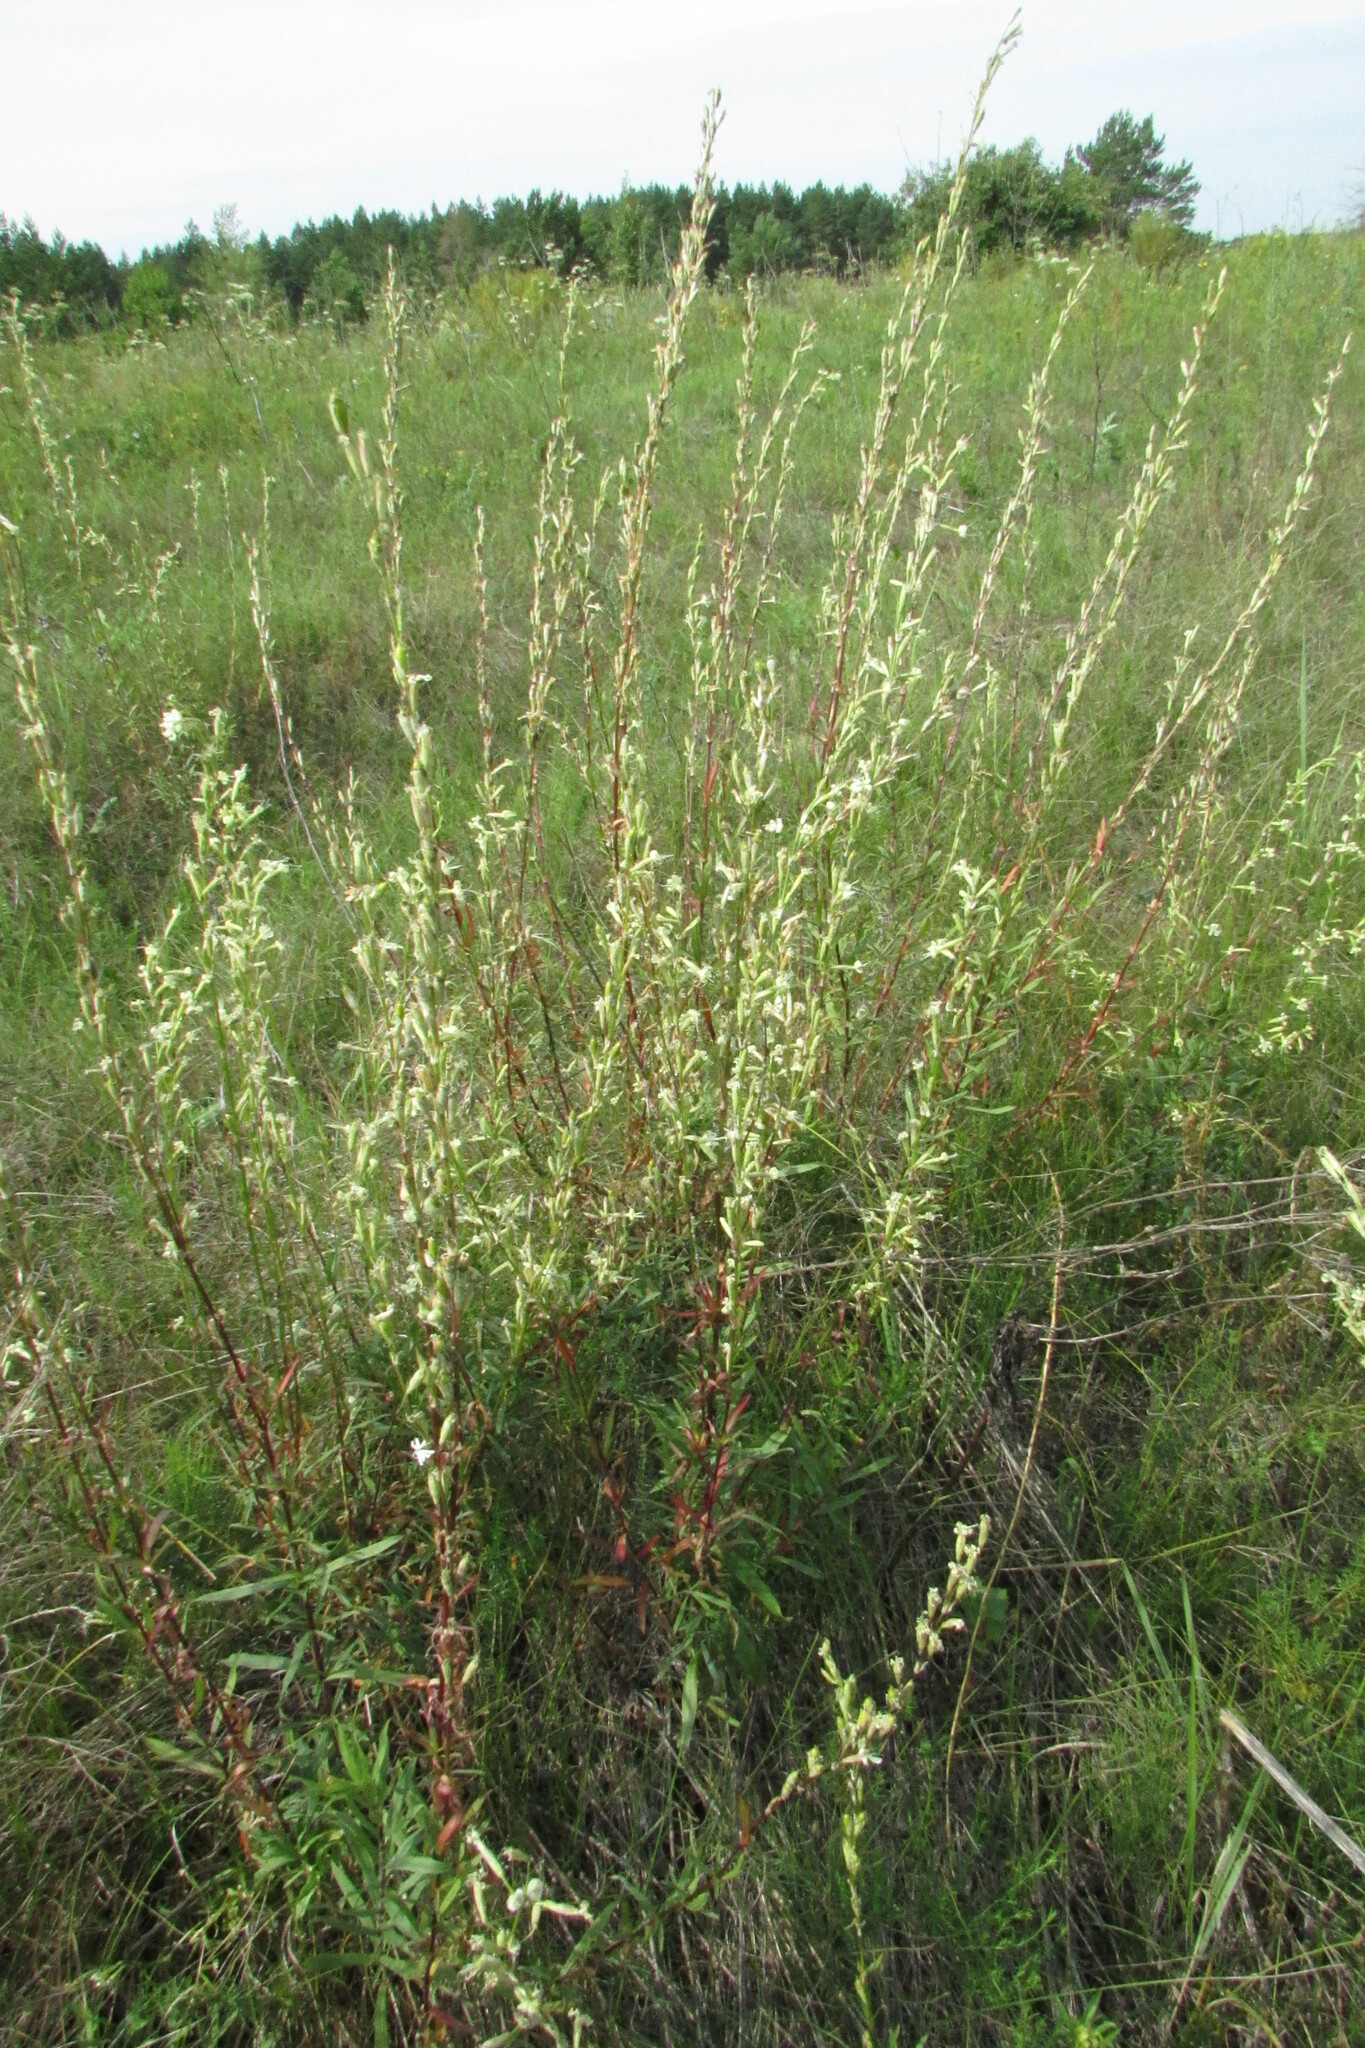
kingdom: Plantae
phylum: Tracheophyta
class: Magnoliopsida
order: Caryophyllales
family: Caryophyllaceae
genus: Silene
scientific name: Silene tatarica
